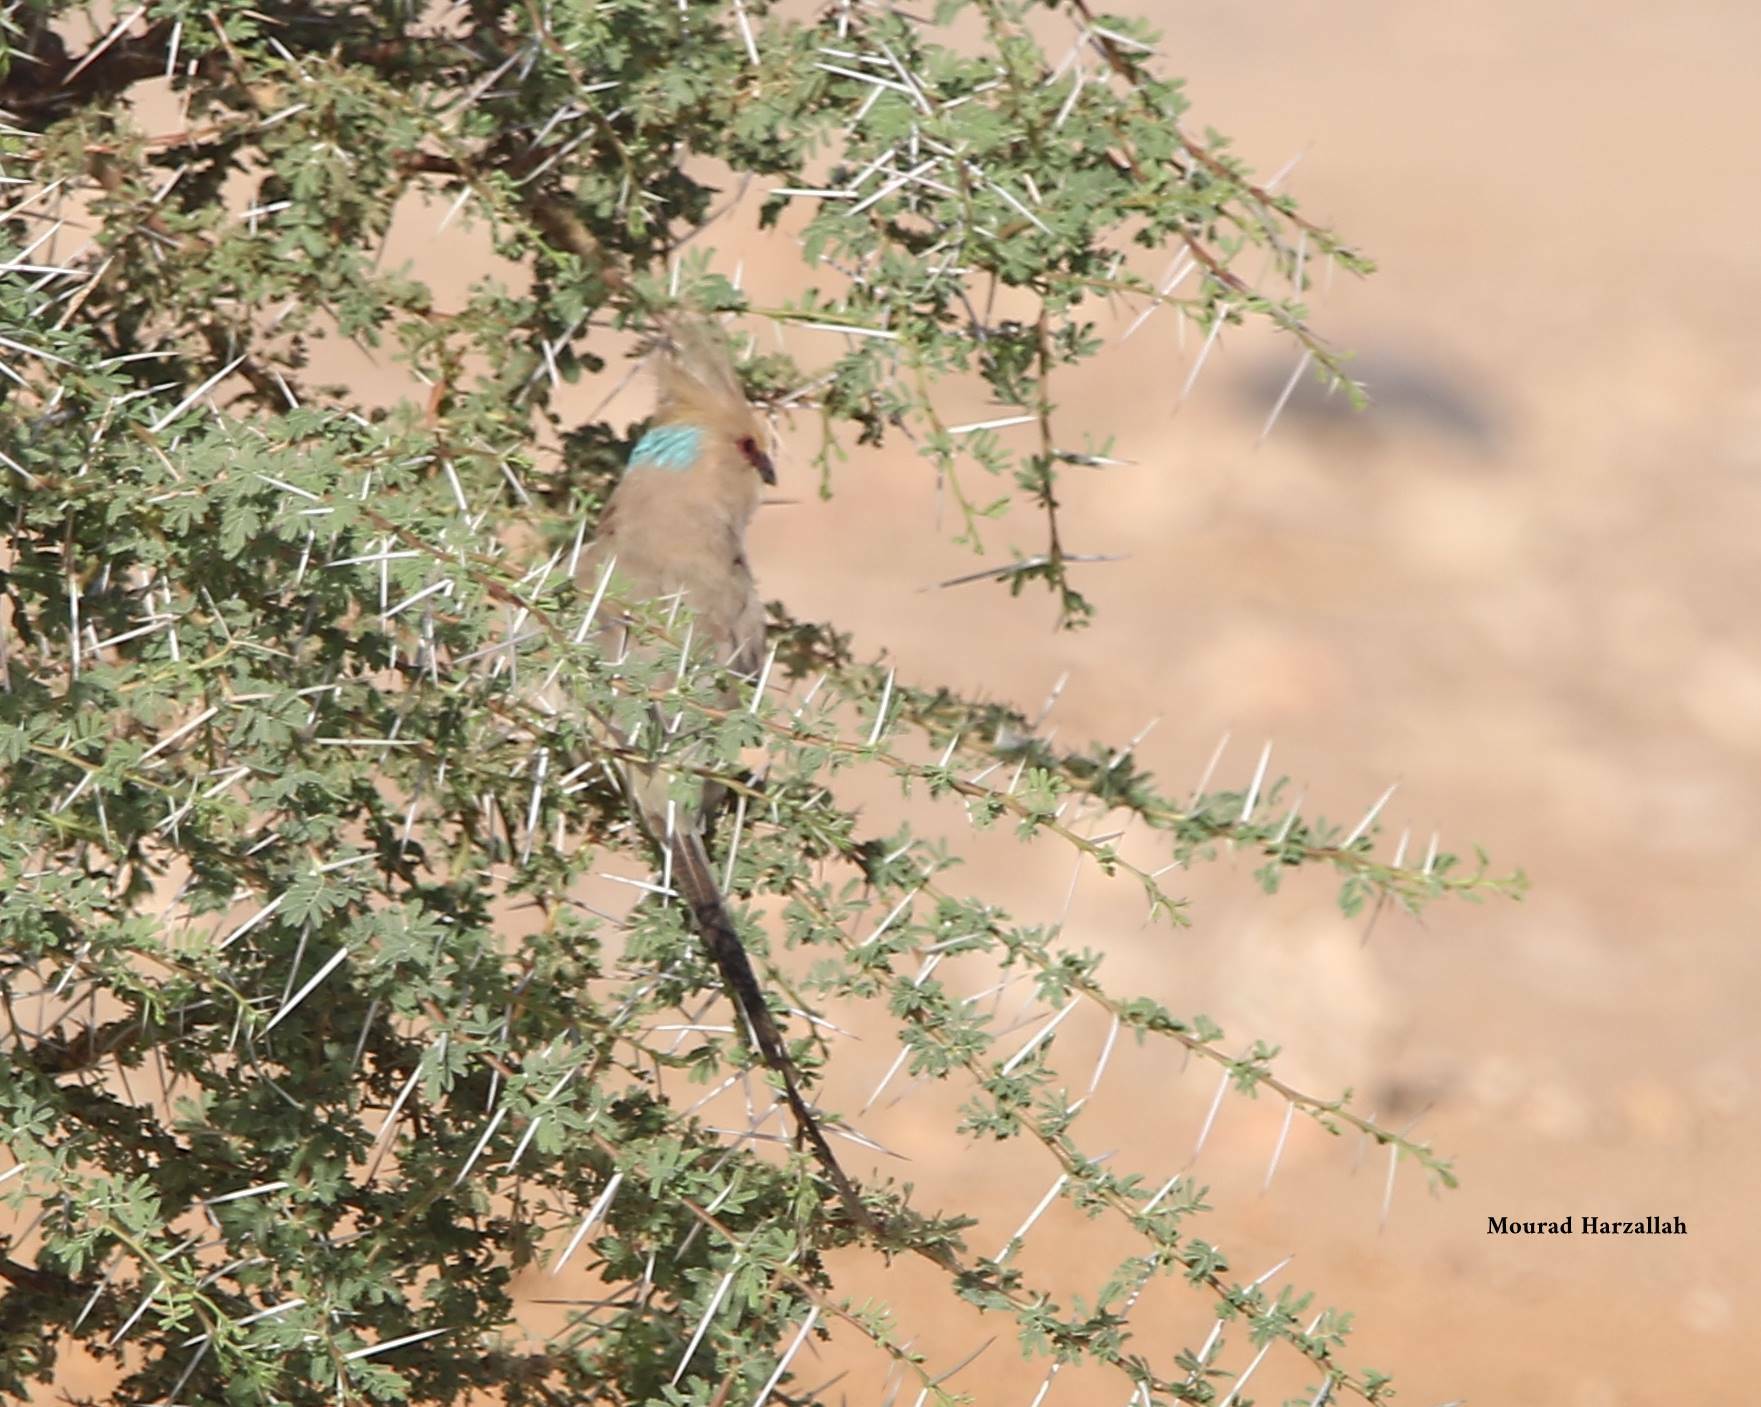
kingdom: Animalia
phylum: Chordata
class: Aves
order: Coliiformes
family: Coliidae
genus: Urocolius
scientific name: Urocolius macrourus
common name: Blue-naped mousebird
